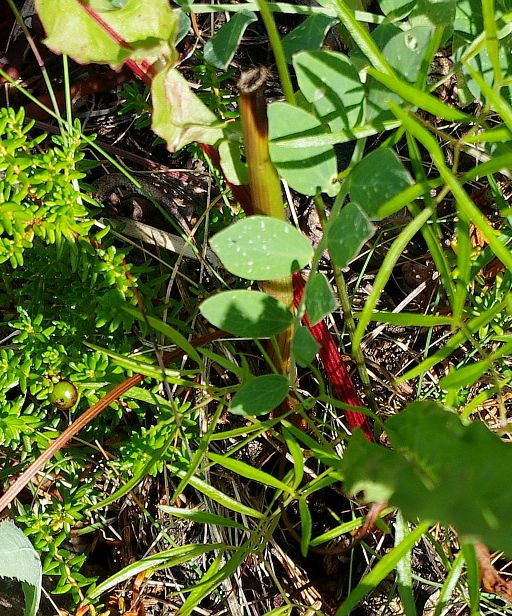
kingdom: Plantae
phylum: Tracheophyta
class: Magnoliopsida
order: Caryophyllales
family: Polygonaceae
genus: Rumex
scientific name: Rumex pseudonatronatus
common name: Field dock
